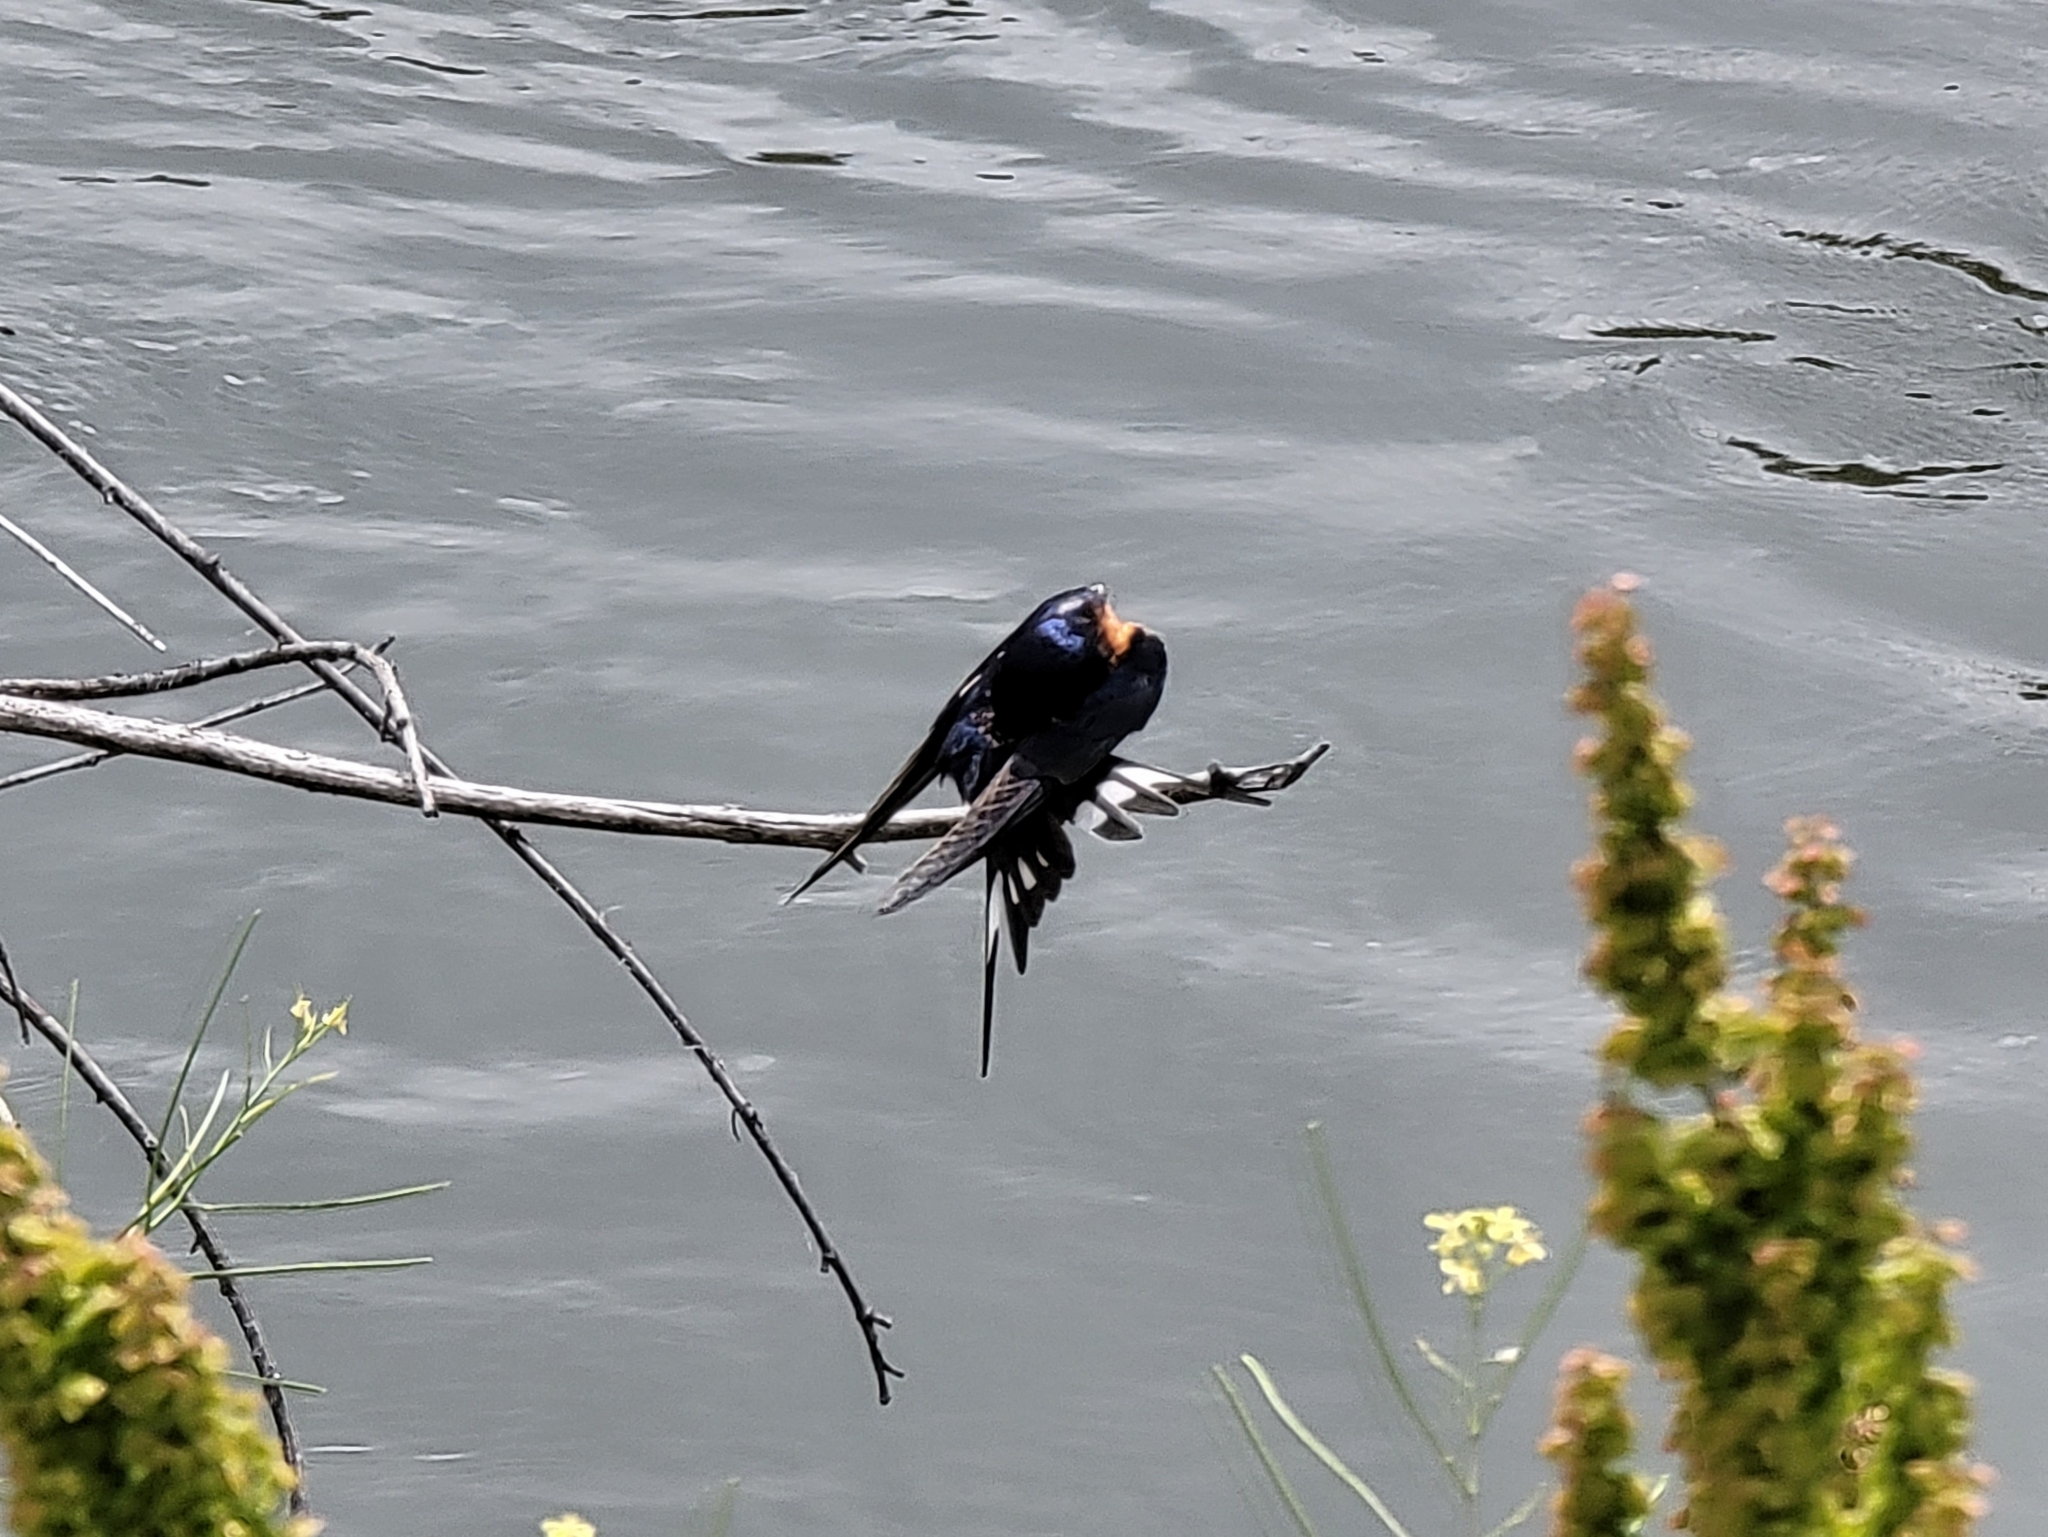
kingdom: Animalia
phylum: Chordata
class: Aves
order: Passeriformes
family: Hirundinidae
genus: Hirundo
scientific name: Hirundo rustica
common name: Barn swallow
